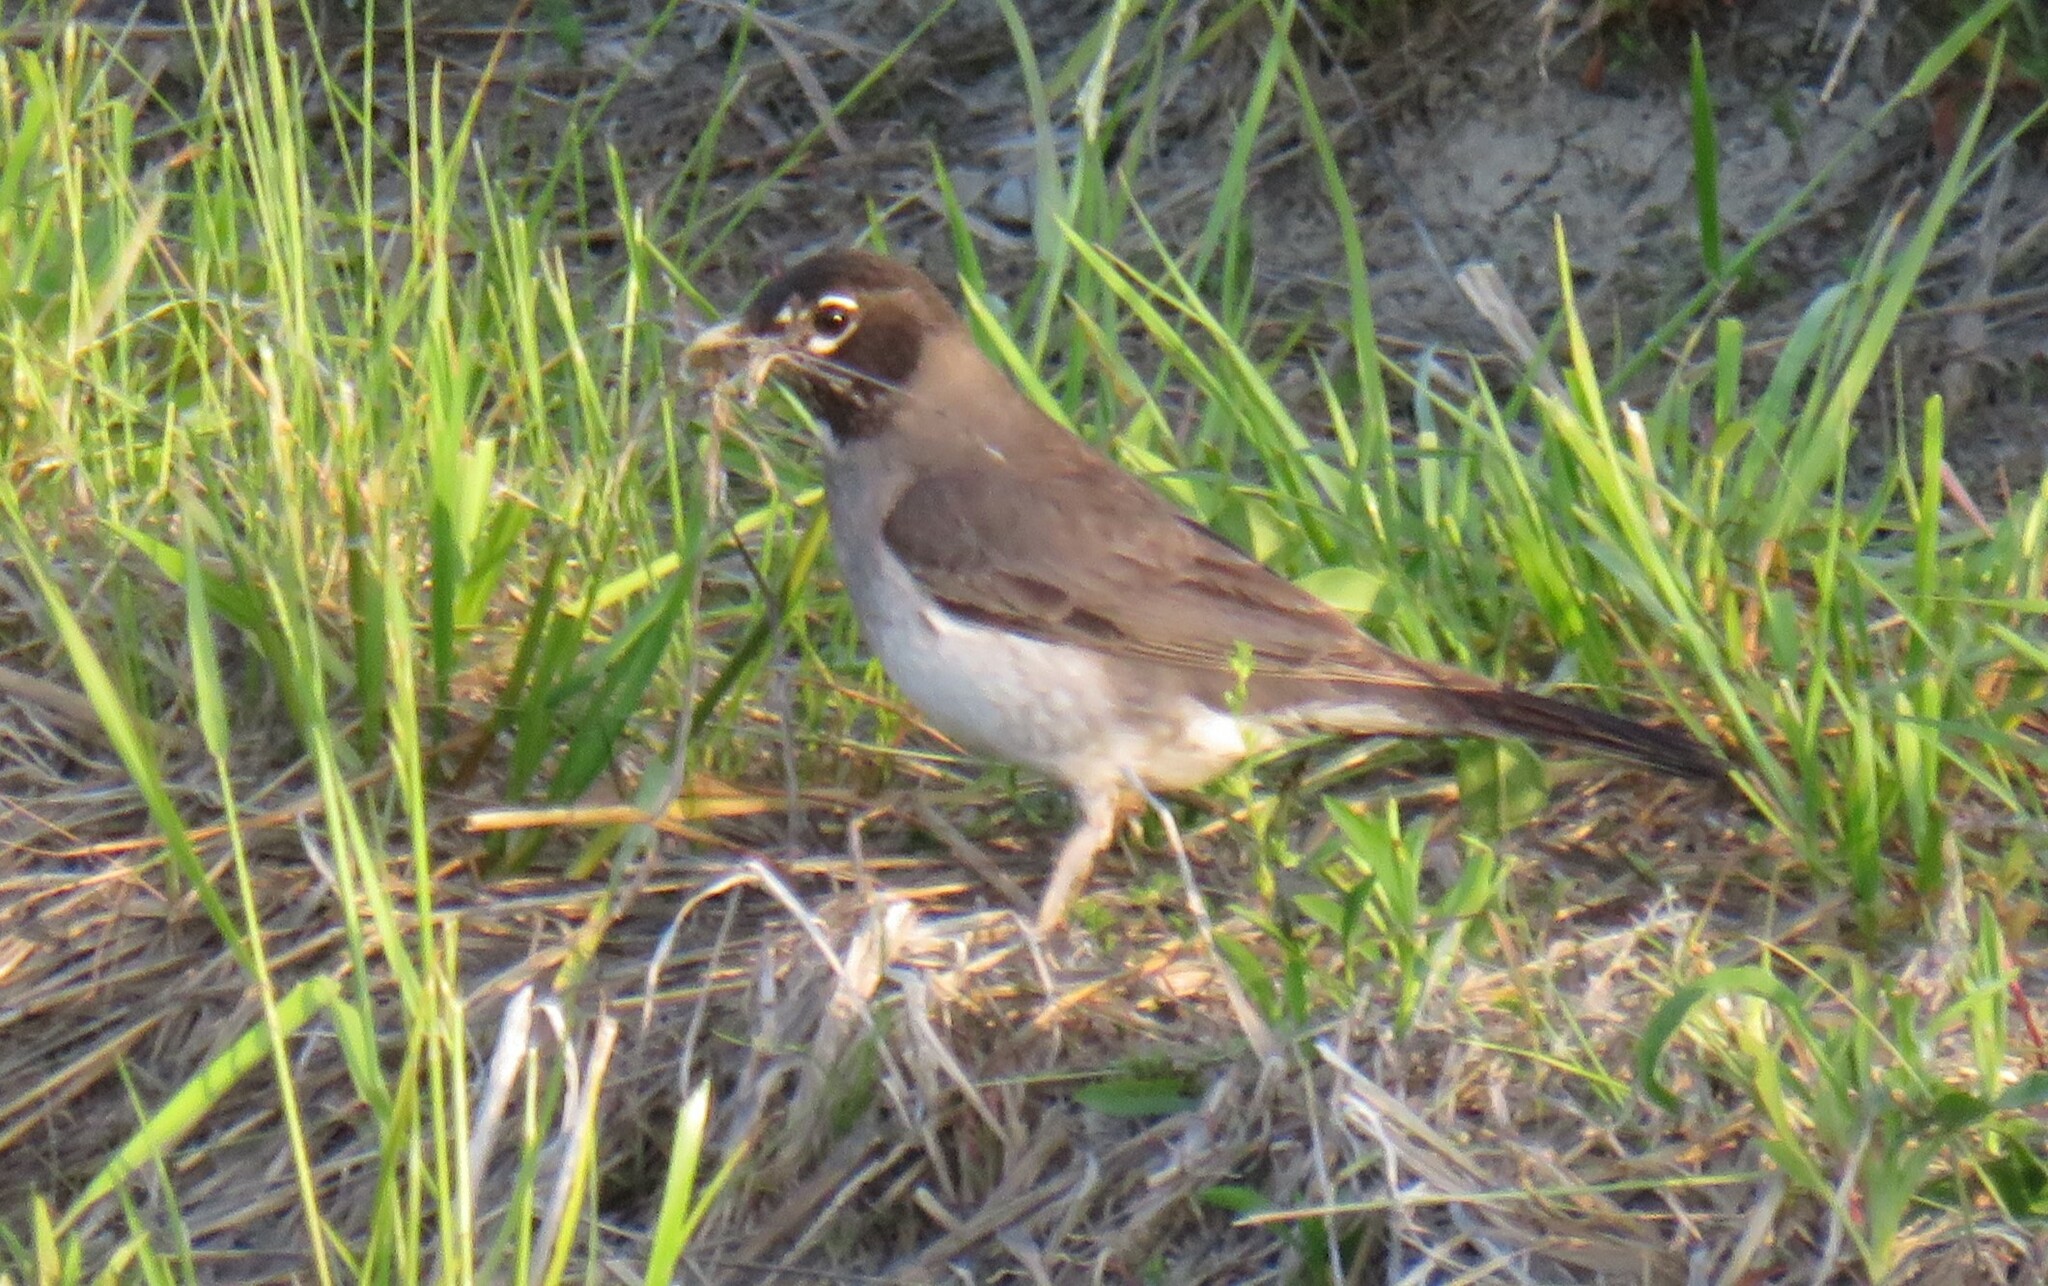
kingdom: Animalia
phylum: Chordata
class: Aves
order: Passeriformes
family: Turdidae
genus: Turdus
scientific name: Turdus migratorius
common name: American robin
